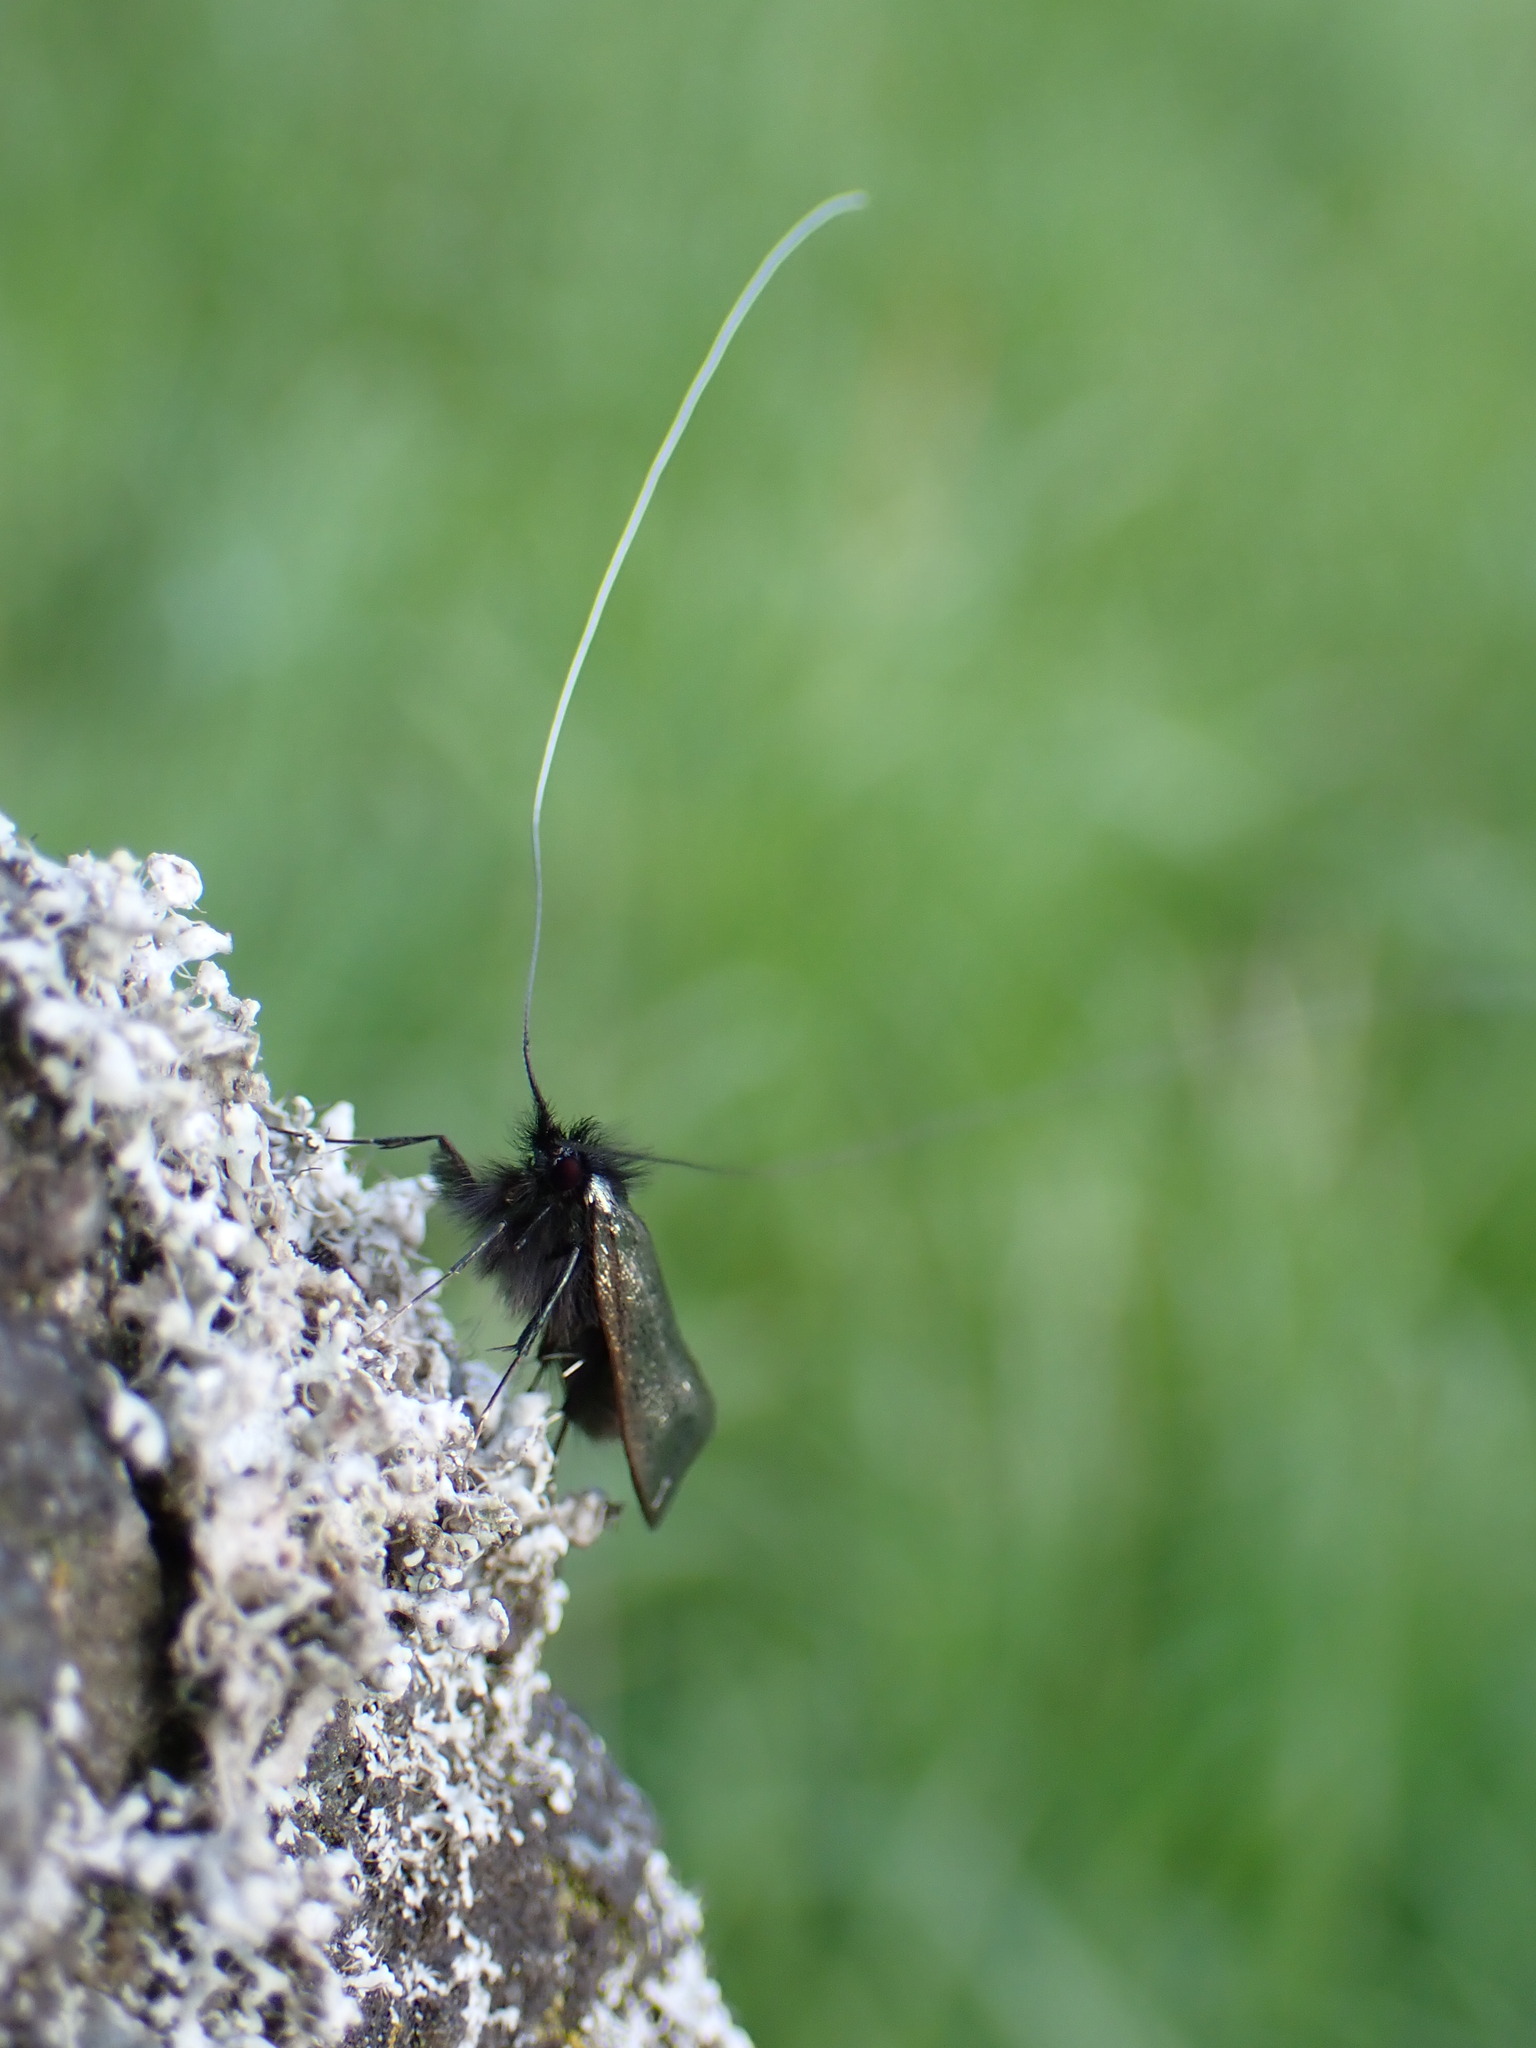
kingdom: Animalia
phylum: Arthropoda
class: Insecta
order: Lepidoptera
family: Adelidae
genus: Adela
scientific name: Adela viridella
